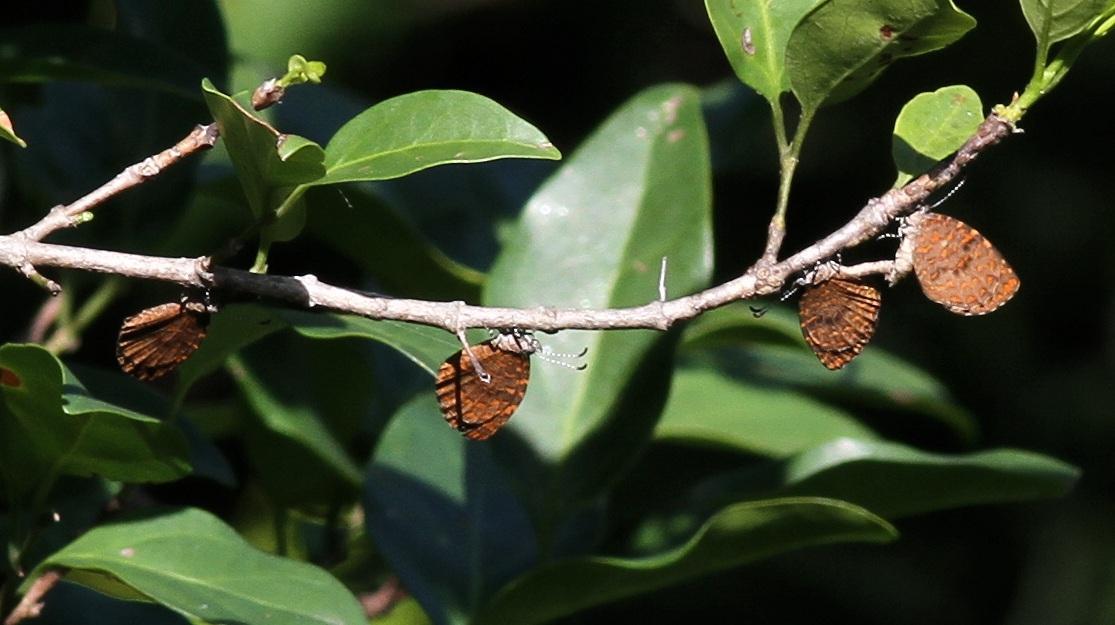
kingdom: Animalia
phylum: Arthropoda
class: Insecta
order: Lepidoptera
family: Lycaenidae
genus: Baliochila
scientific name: Baliochila aslanga
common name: Natal buff
